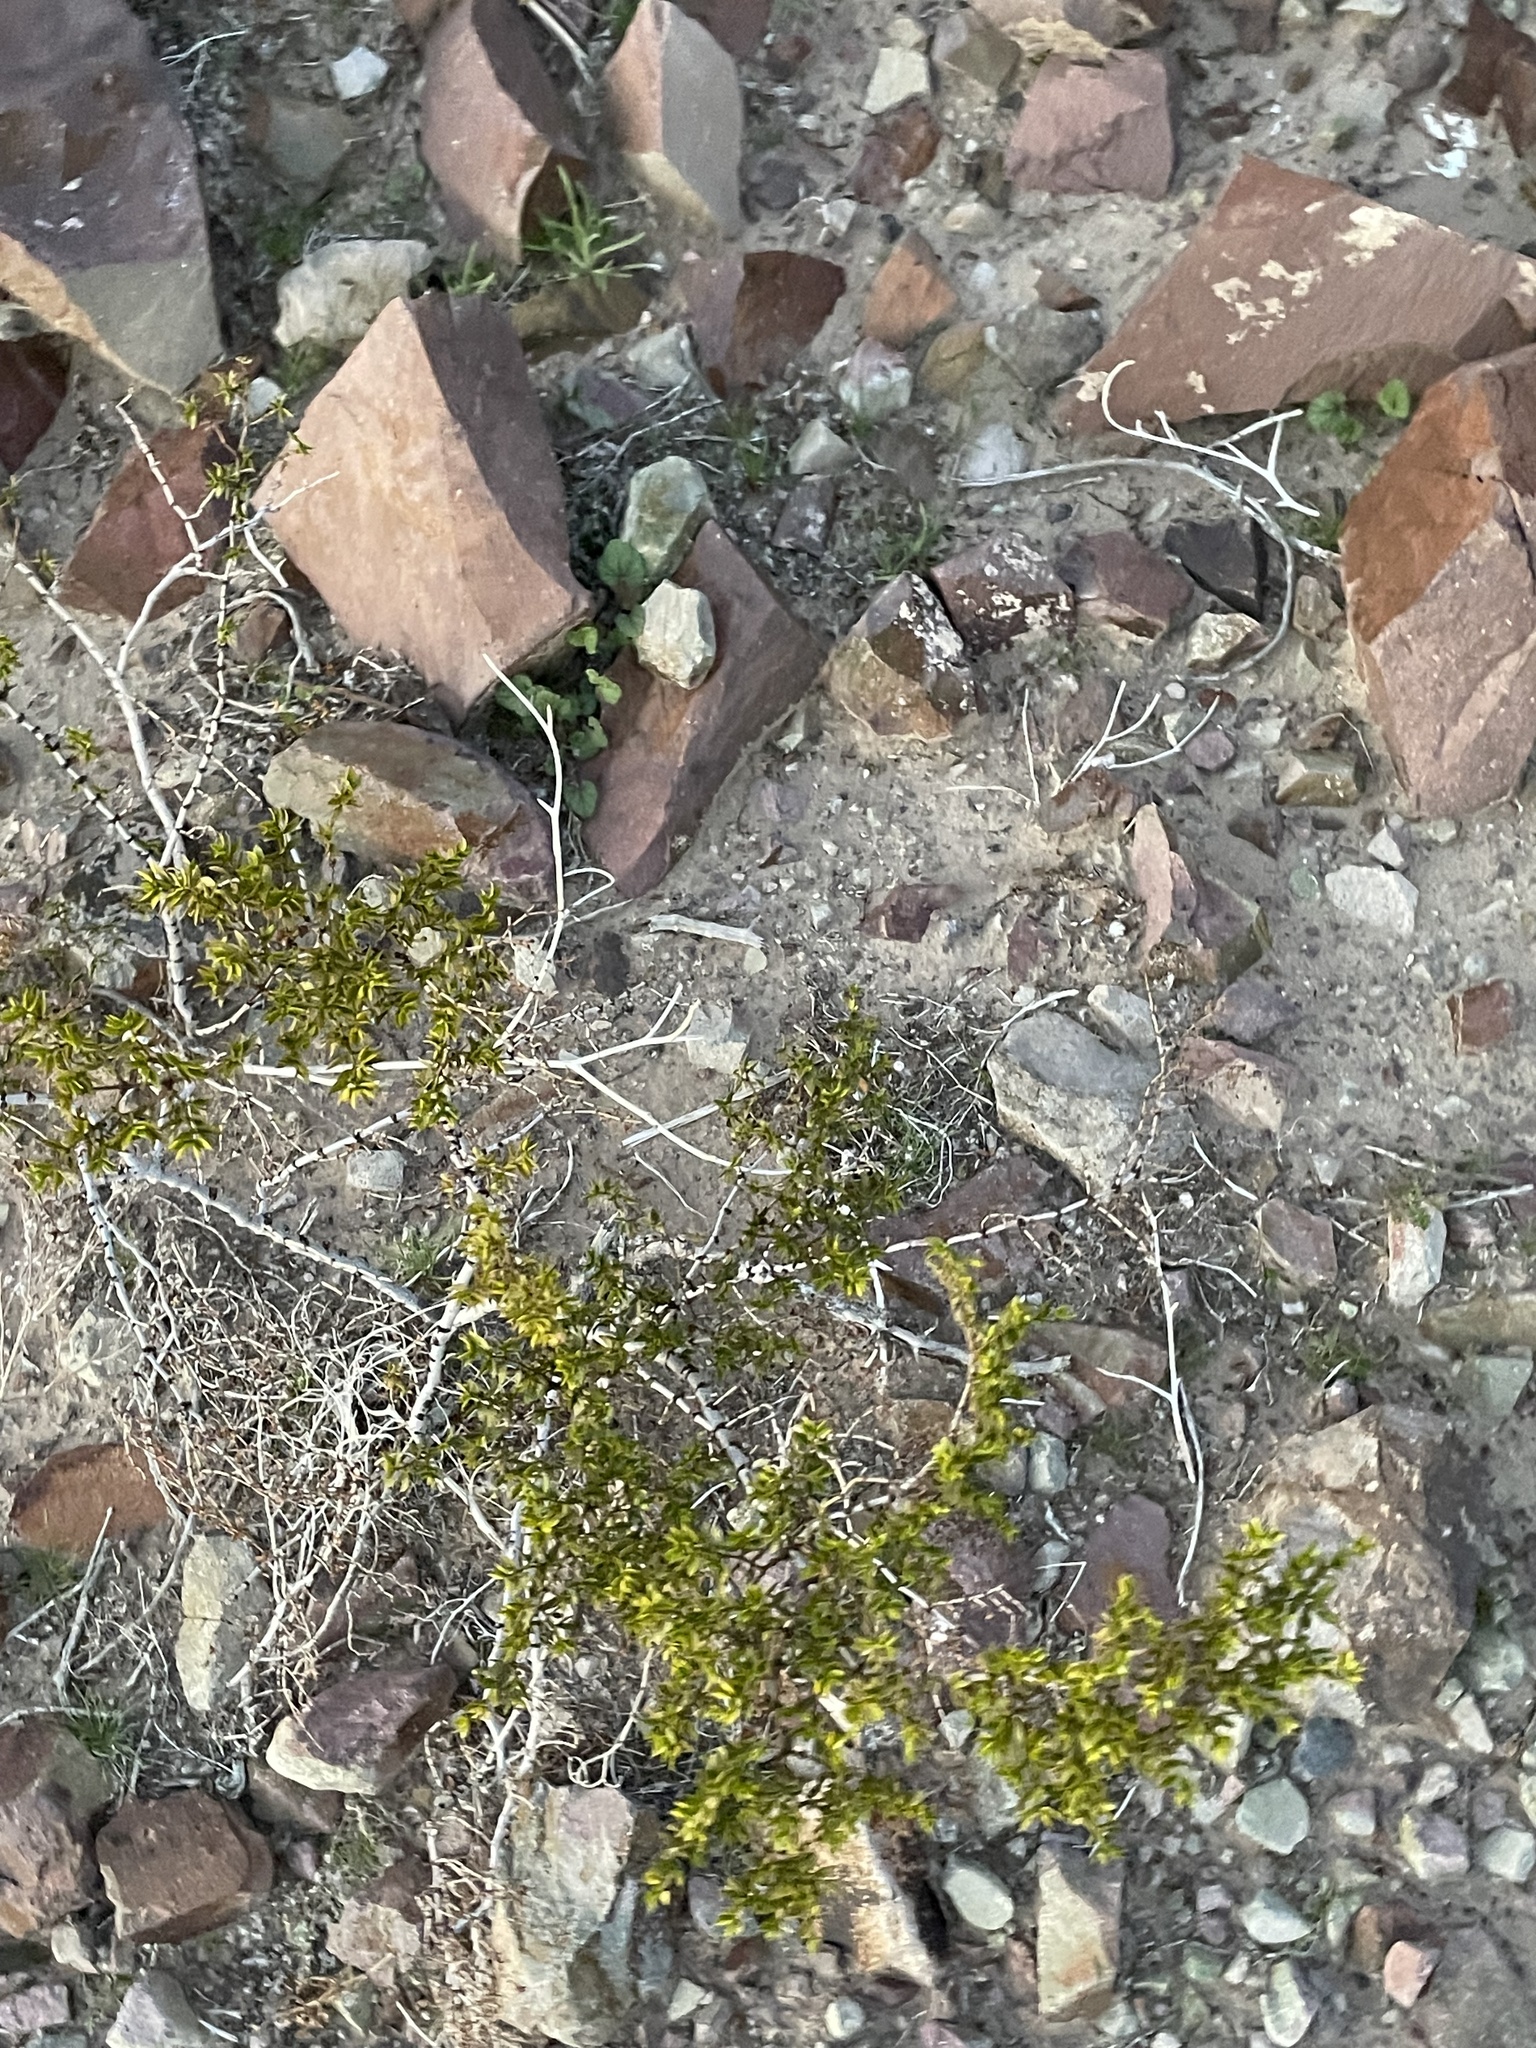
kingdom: Plantae
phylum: Tracheophyta
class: Magnoliopsida
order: Zygophyllales
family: Zygophyllaceae
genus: Larrea
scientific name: Larrea tridentata
